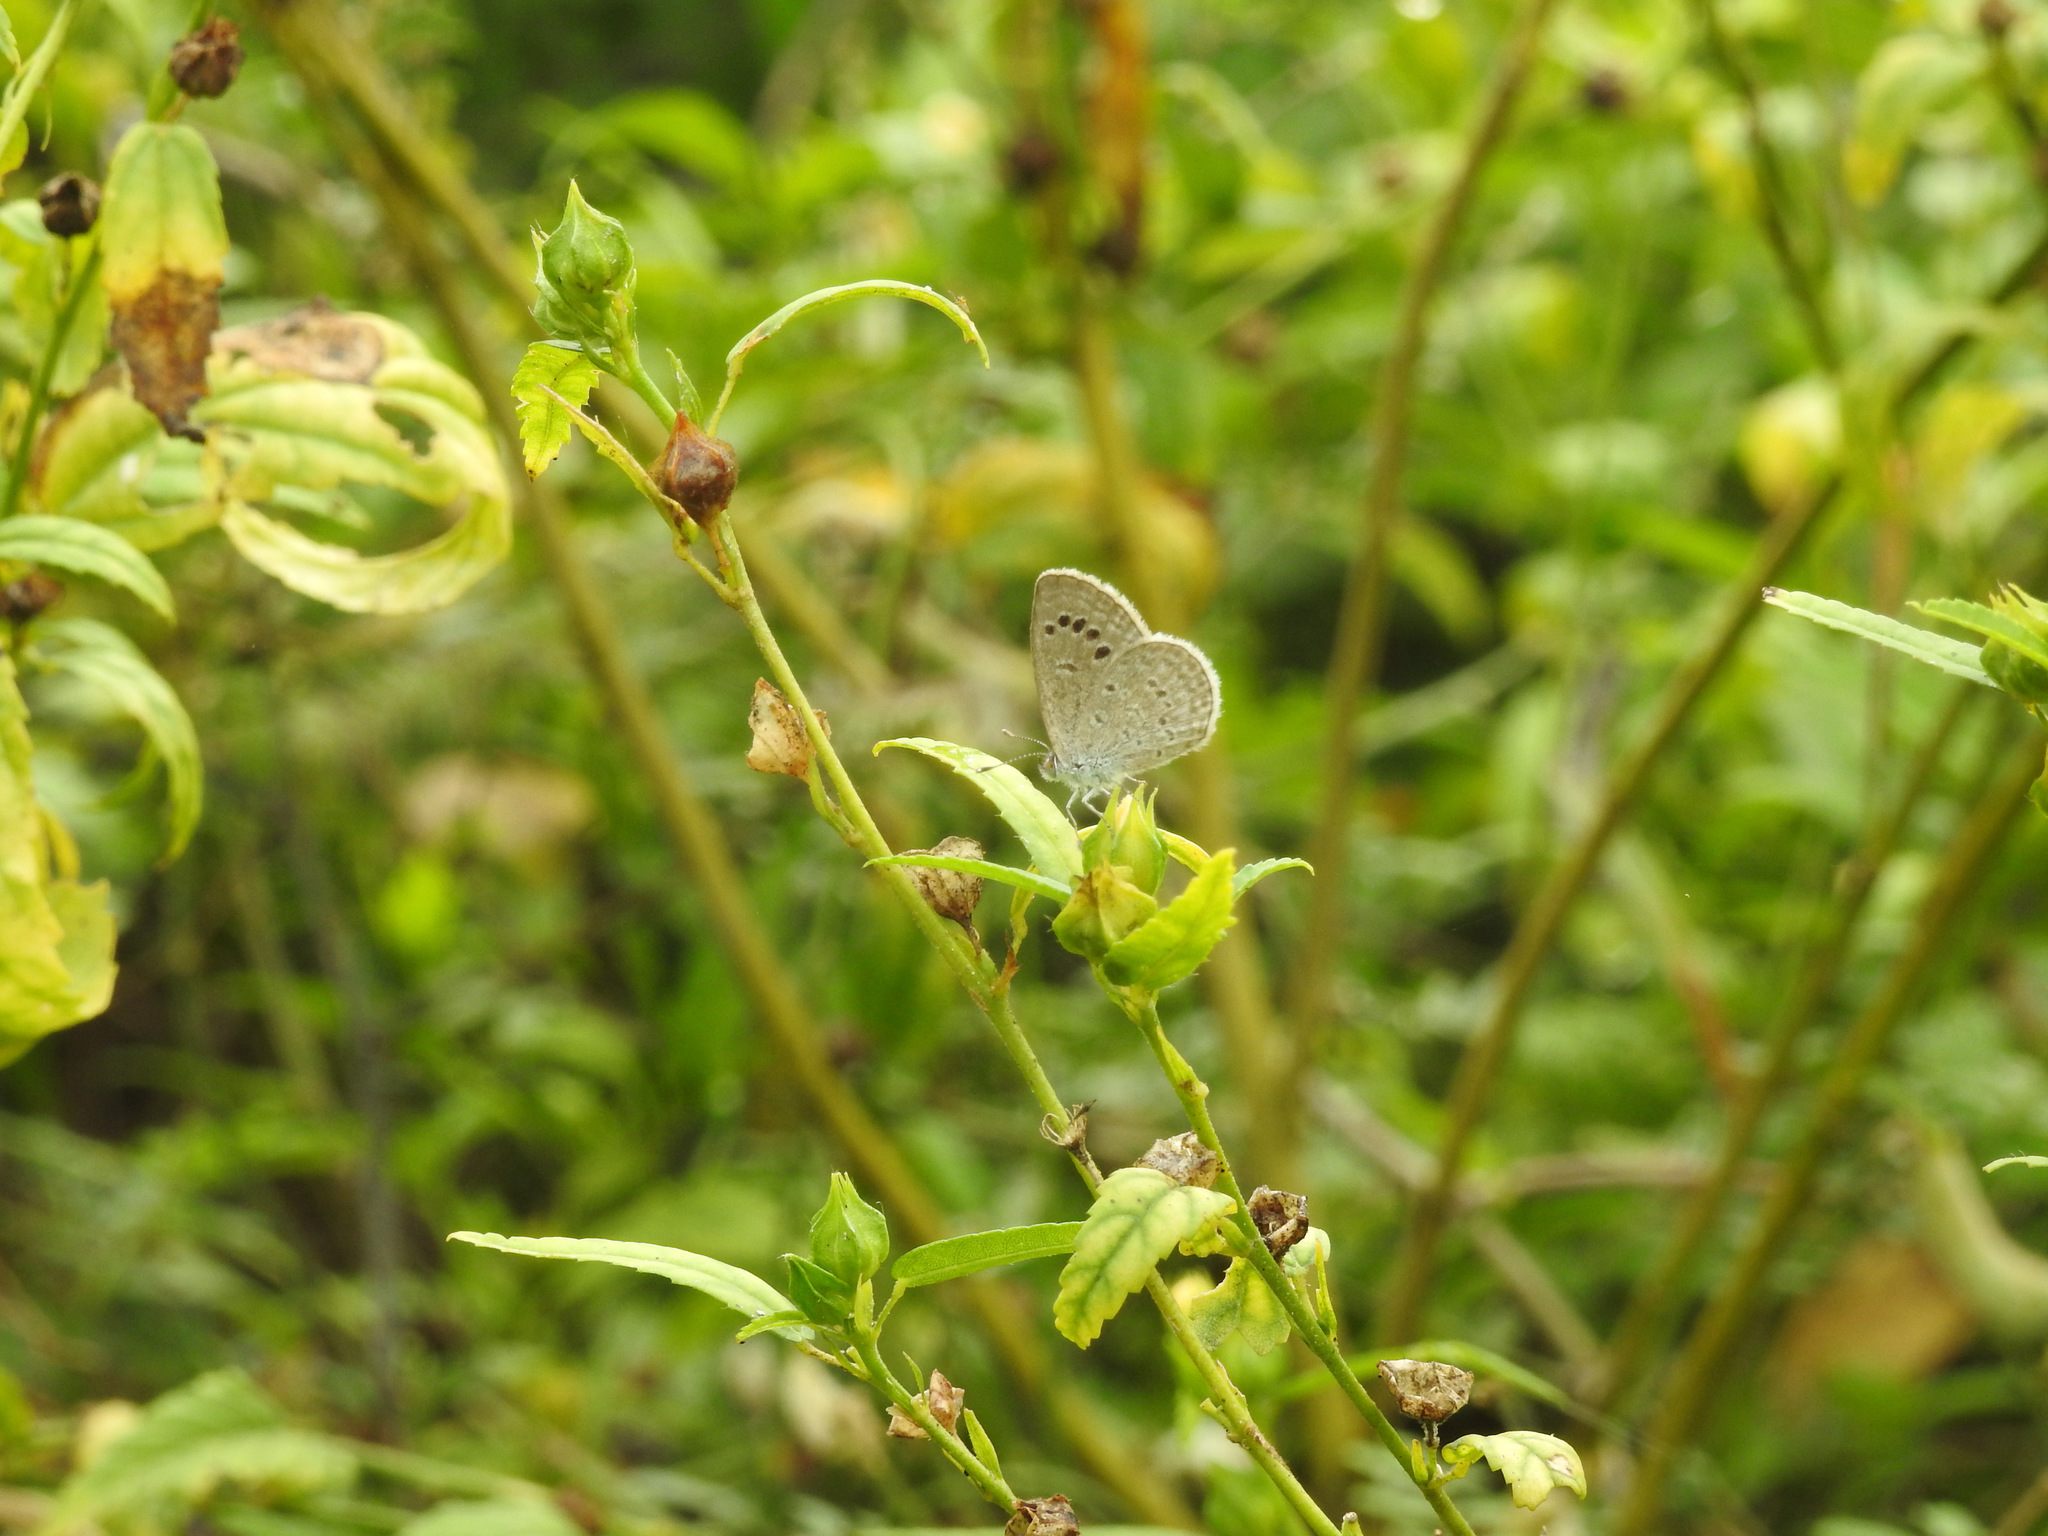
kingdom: Animalia
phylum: Arthropoda
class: Insecta
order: Lepidoptera
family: Lycaenidae
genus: Zizina
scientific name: Zizina otis
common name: Lesser grass blue
